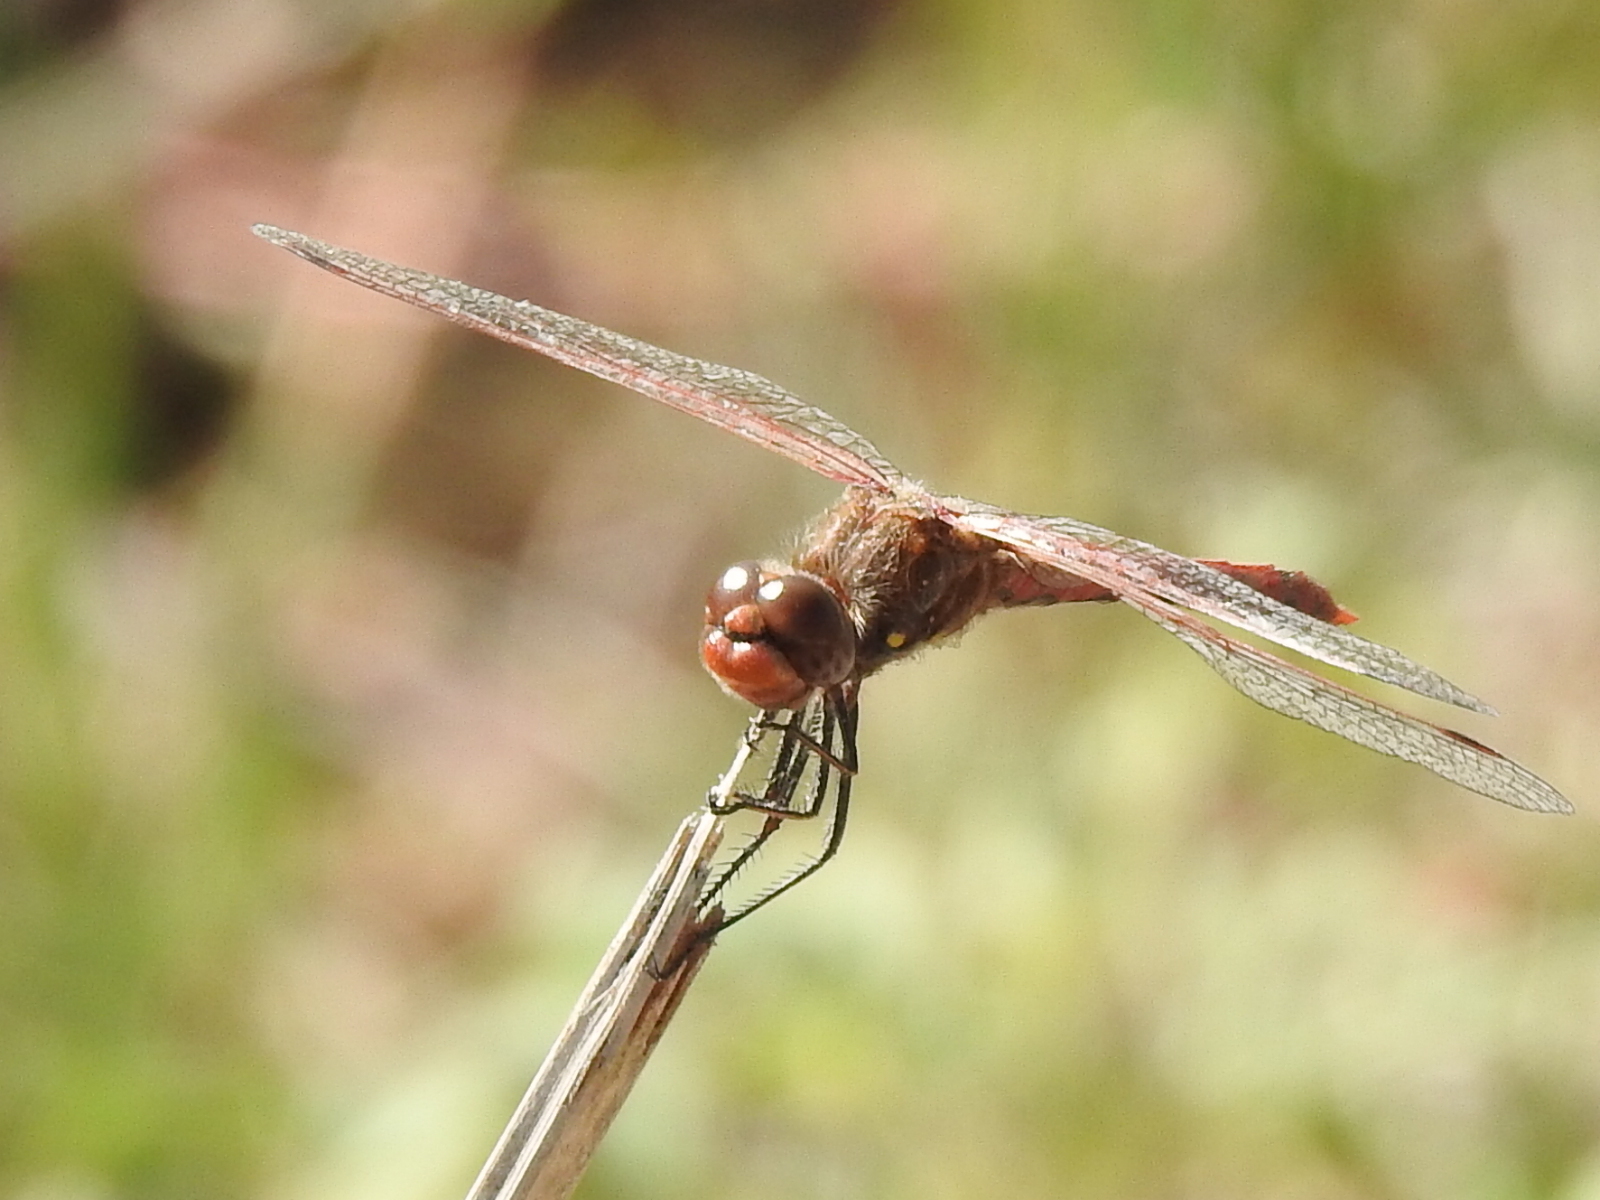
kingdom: Animalia
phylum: Arthropoda
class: Insecta
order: Odonata
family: Libellulidae
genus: Sympetrum
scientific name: Sympetrum corruptum
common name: Variegated meadowhawk
